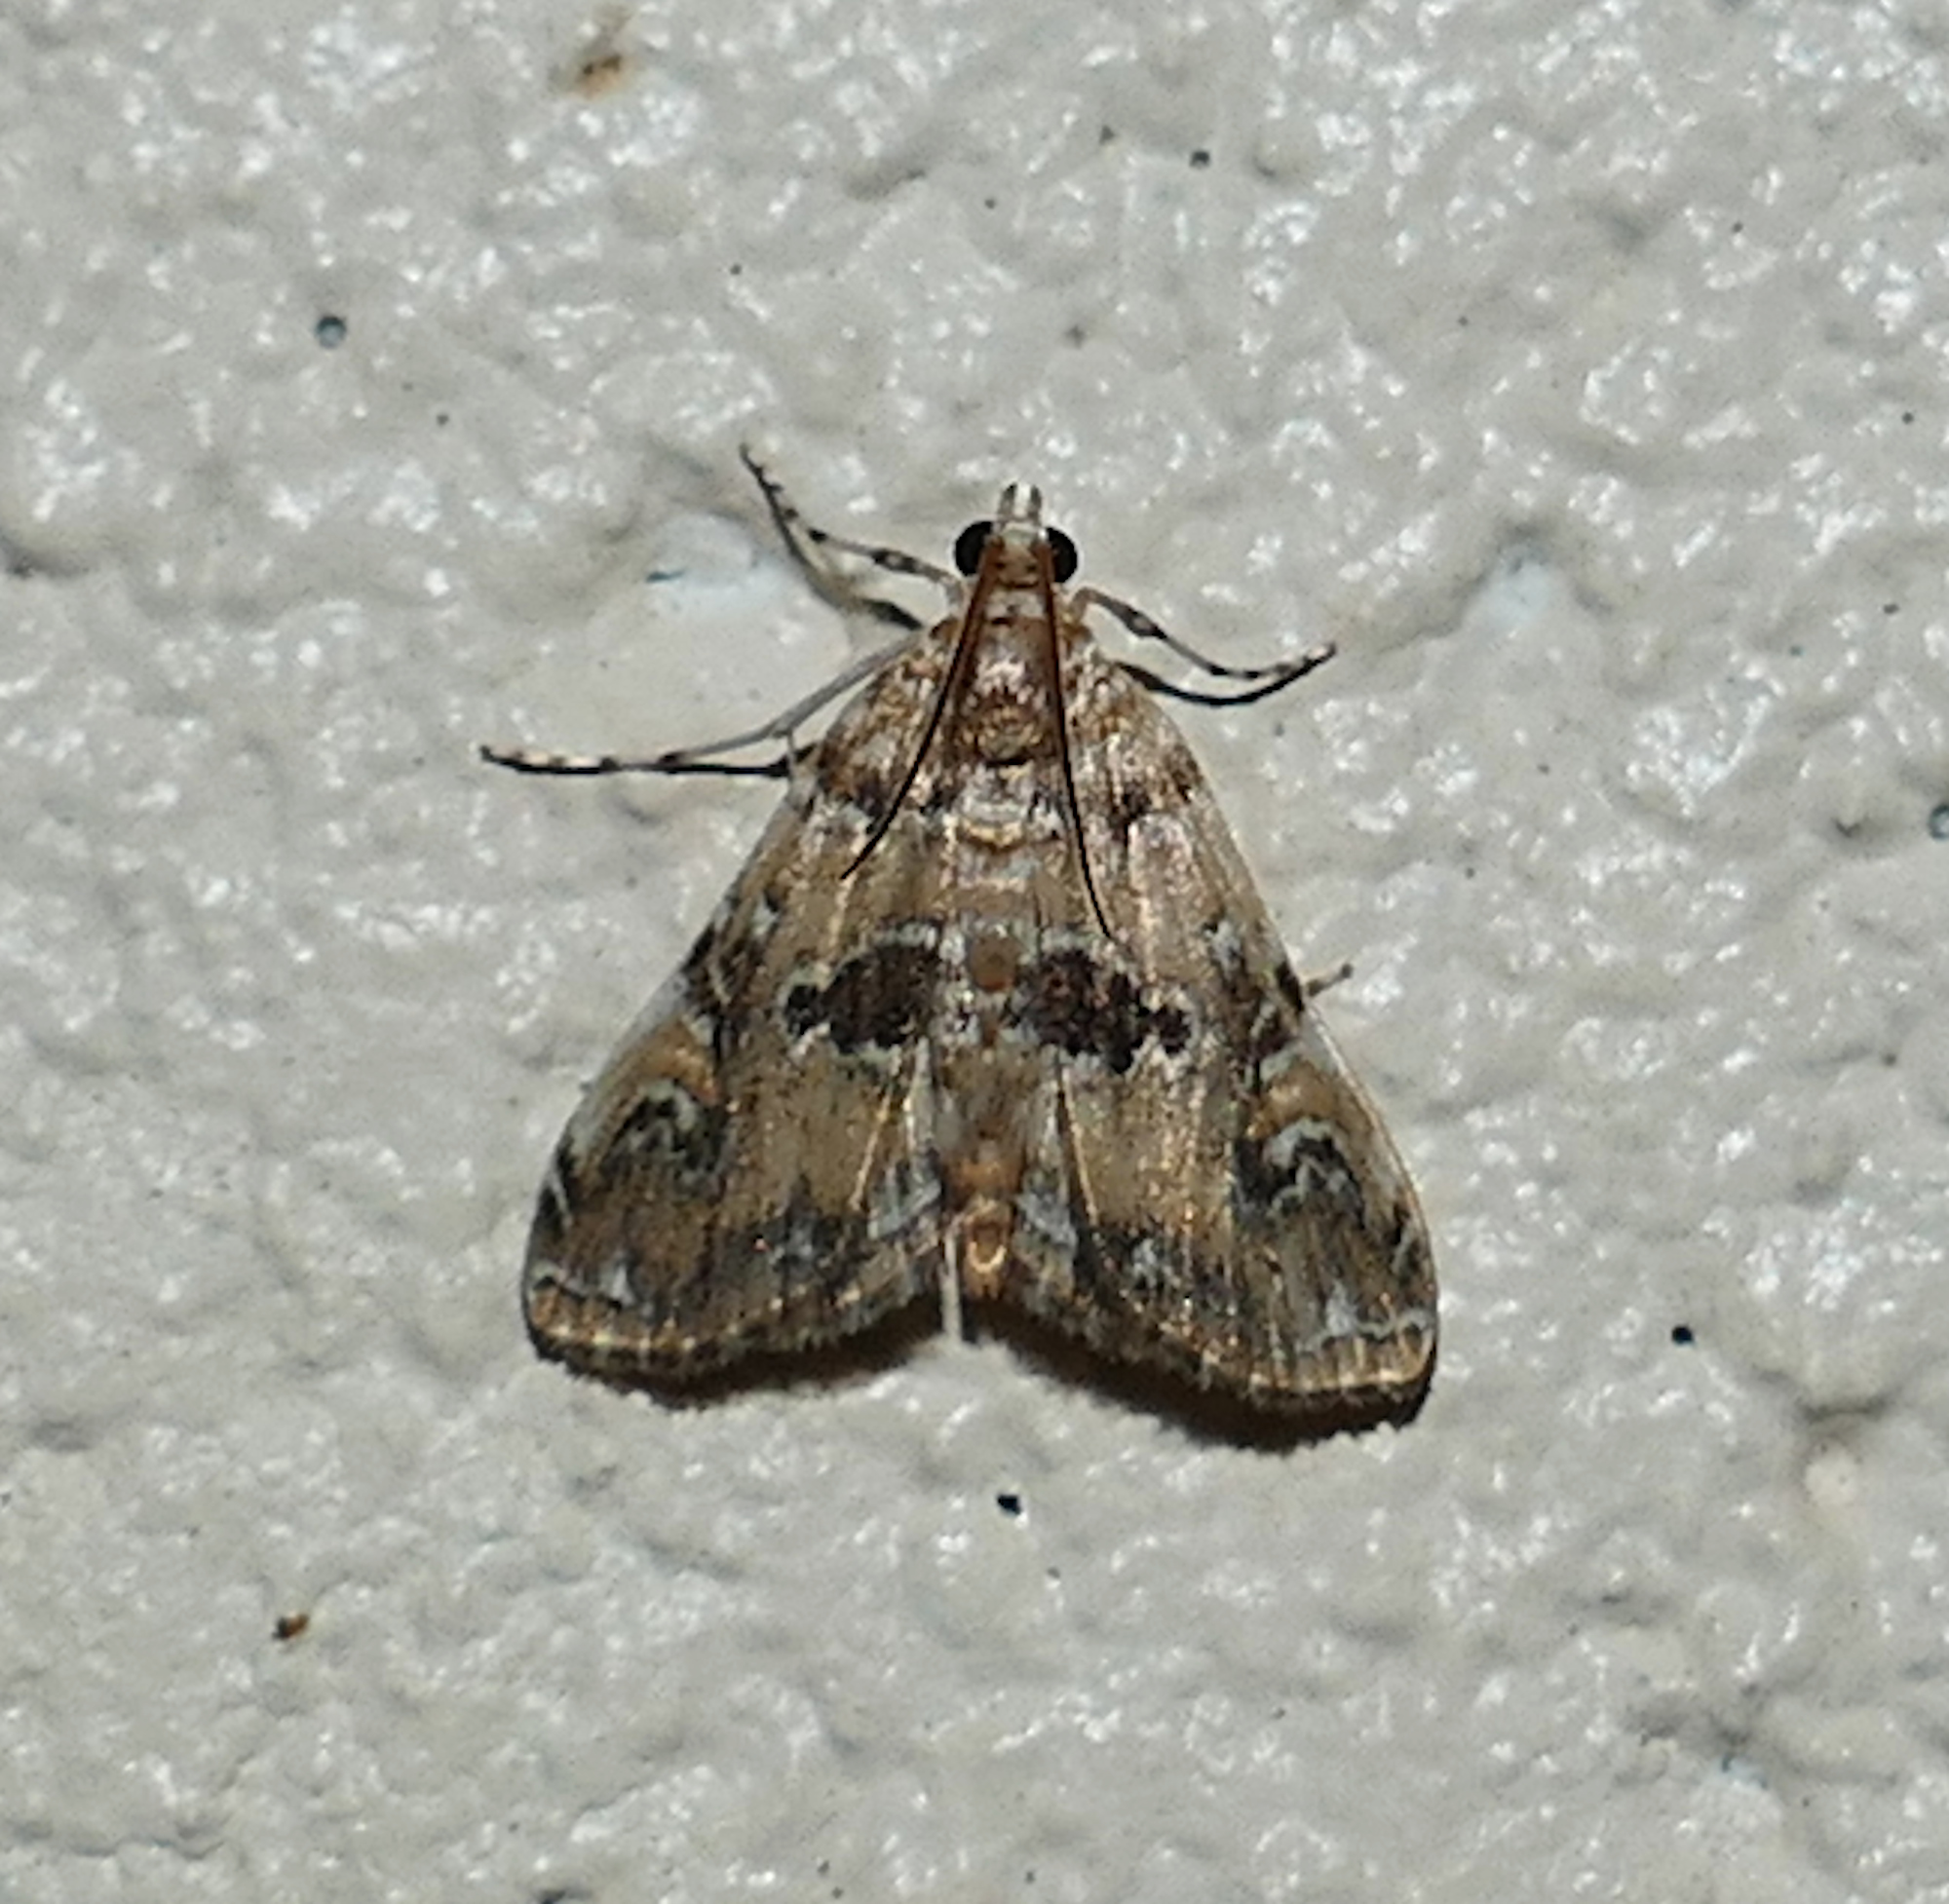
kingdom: Animalia
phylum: Arthropoda
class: Insecta
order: Lepidoptera
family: Crambidae
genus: Elophila
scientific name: Elophila gyralis
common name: Waterlily borer moth
